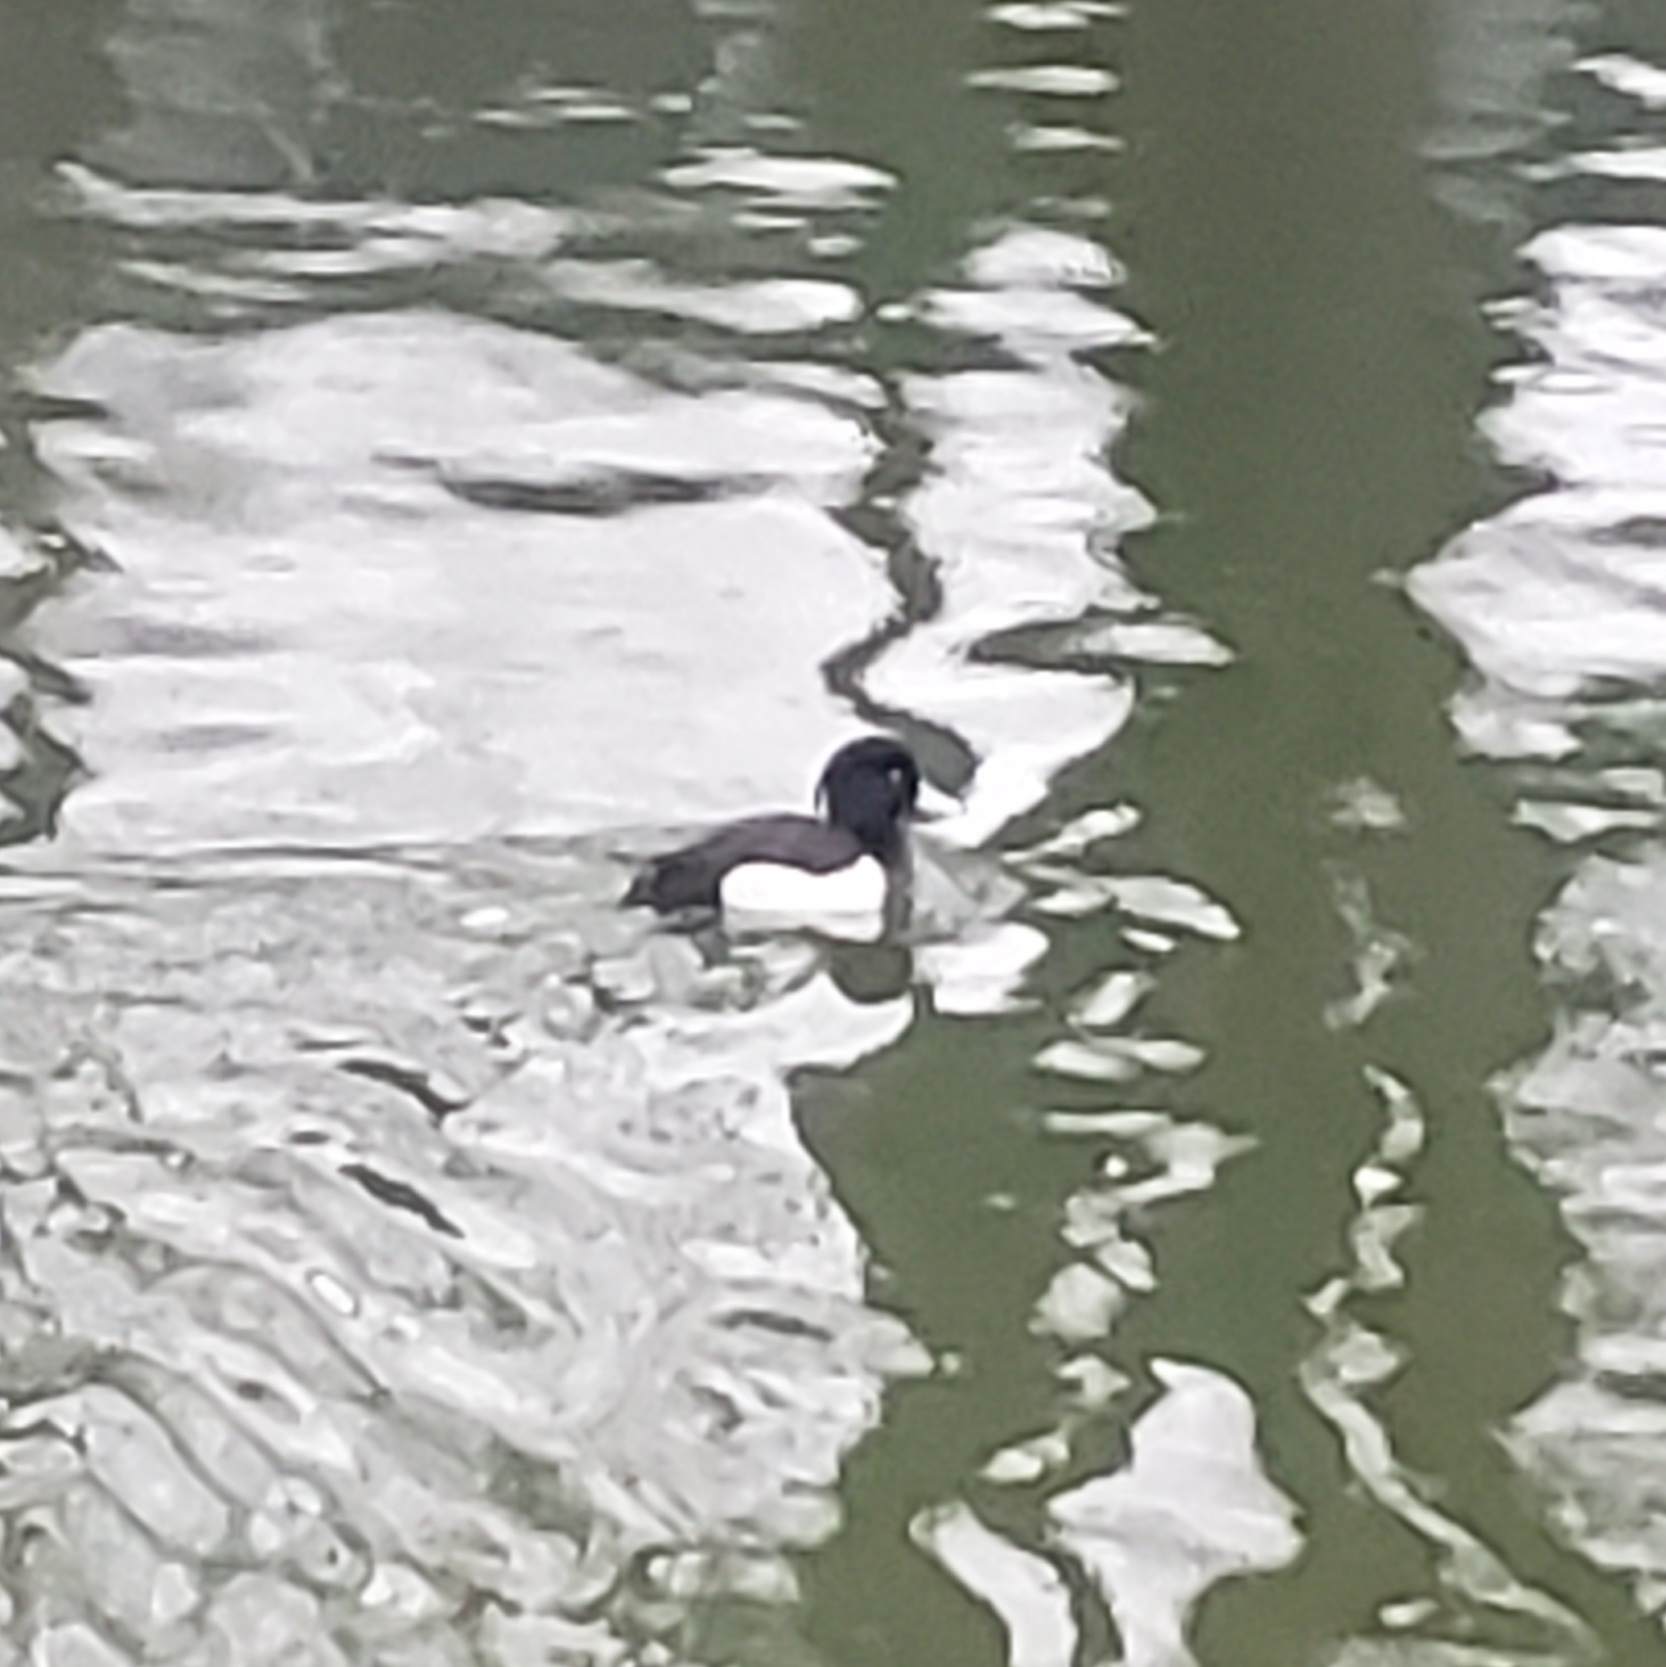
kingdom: Animalia
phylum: Chordata
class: Aves
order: Anseriformes
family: Anatidae
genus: Aythya
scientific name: Aythya fuligula
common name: Tufted duck
